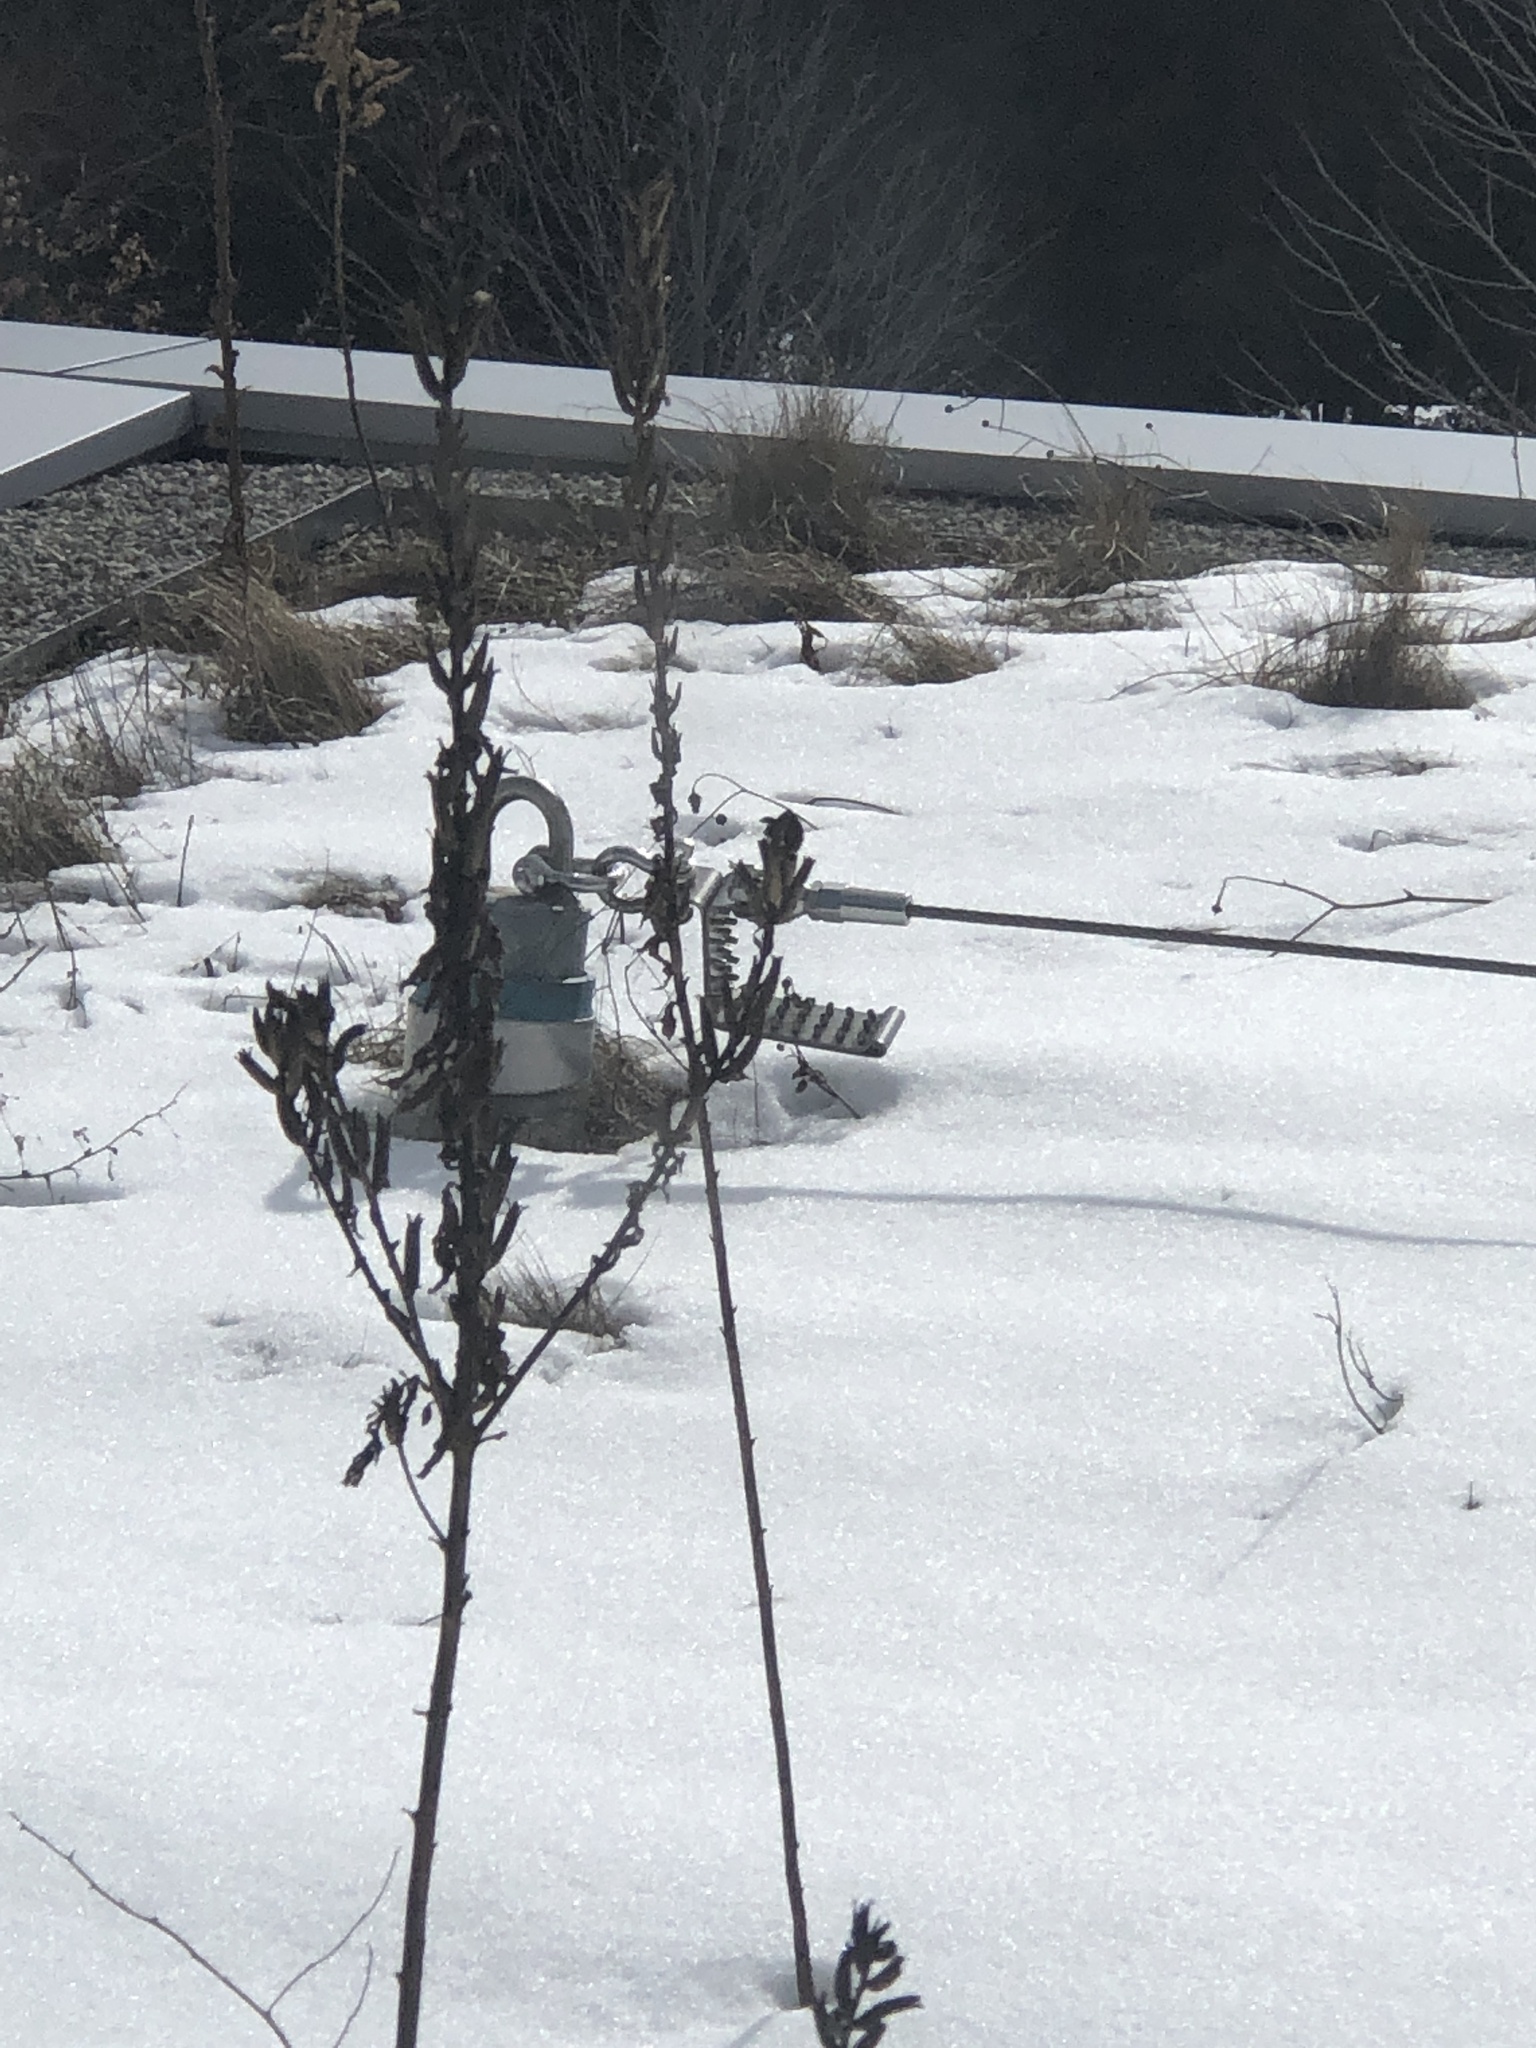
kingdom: Plantae
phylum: Tracheophyta
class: Magnoliopsida
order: Myrtales
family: Onagraceae
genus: Oenothera
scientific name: Oenothera biennis
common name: Common evening-primrose
